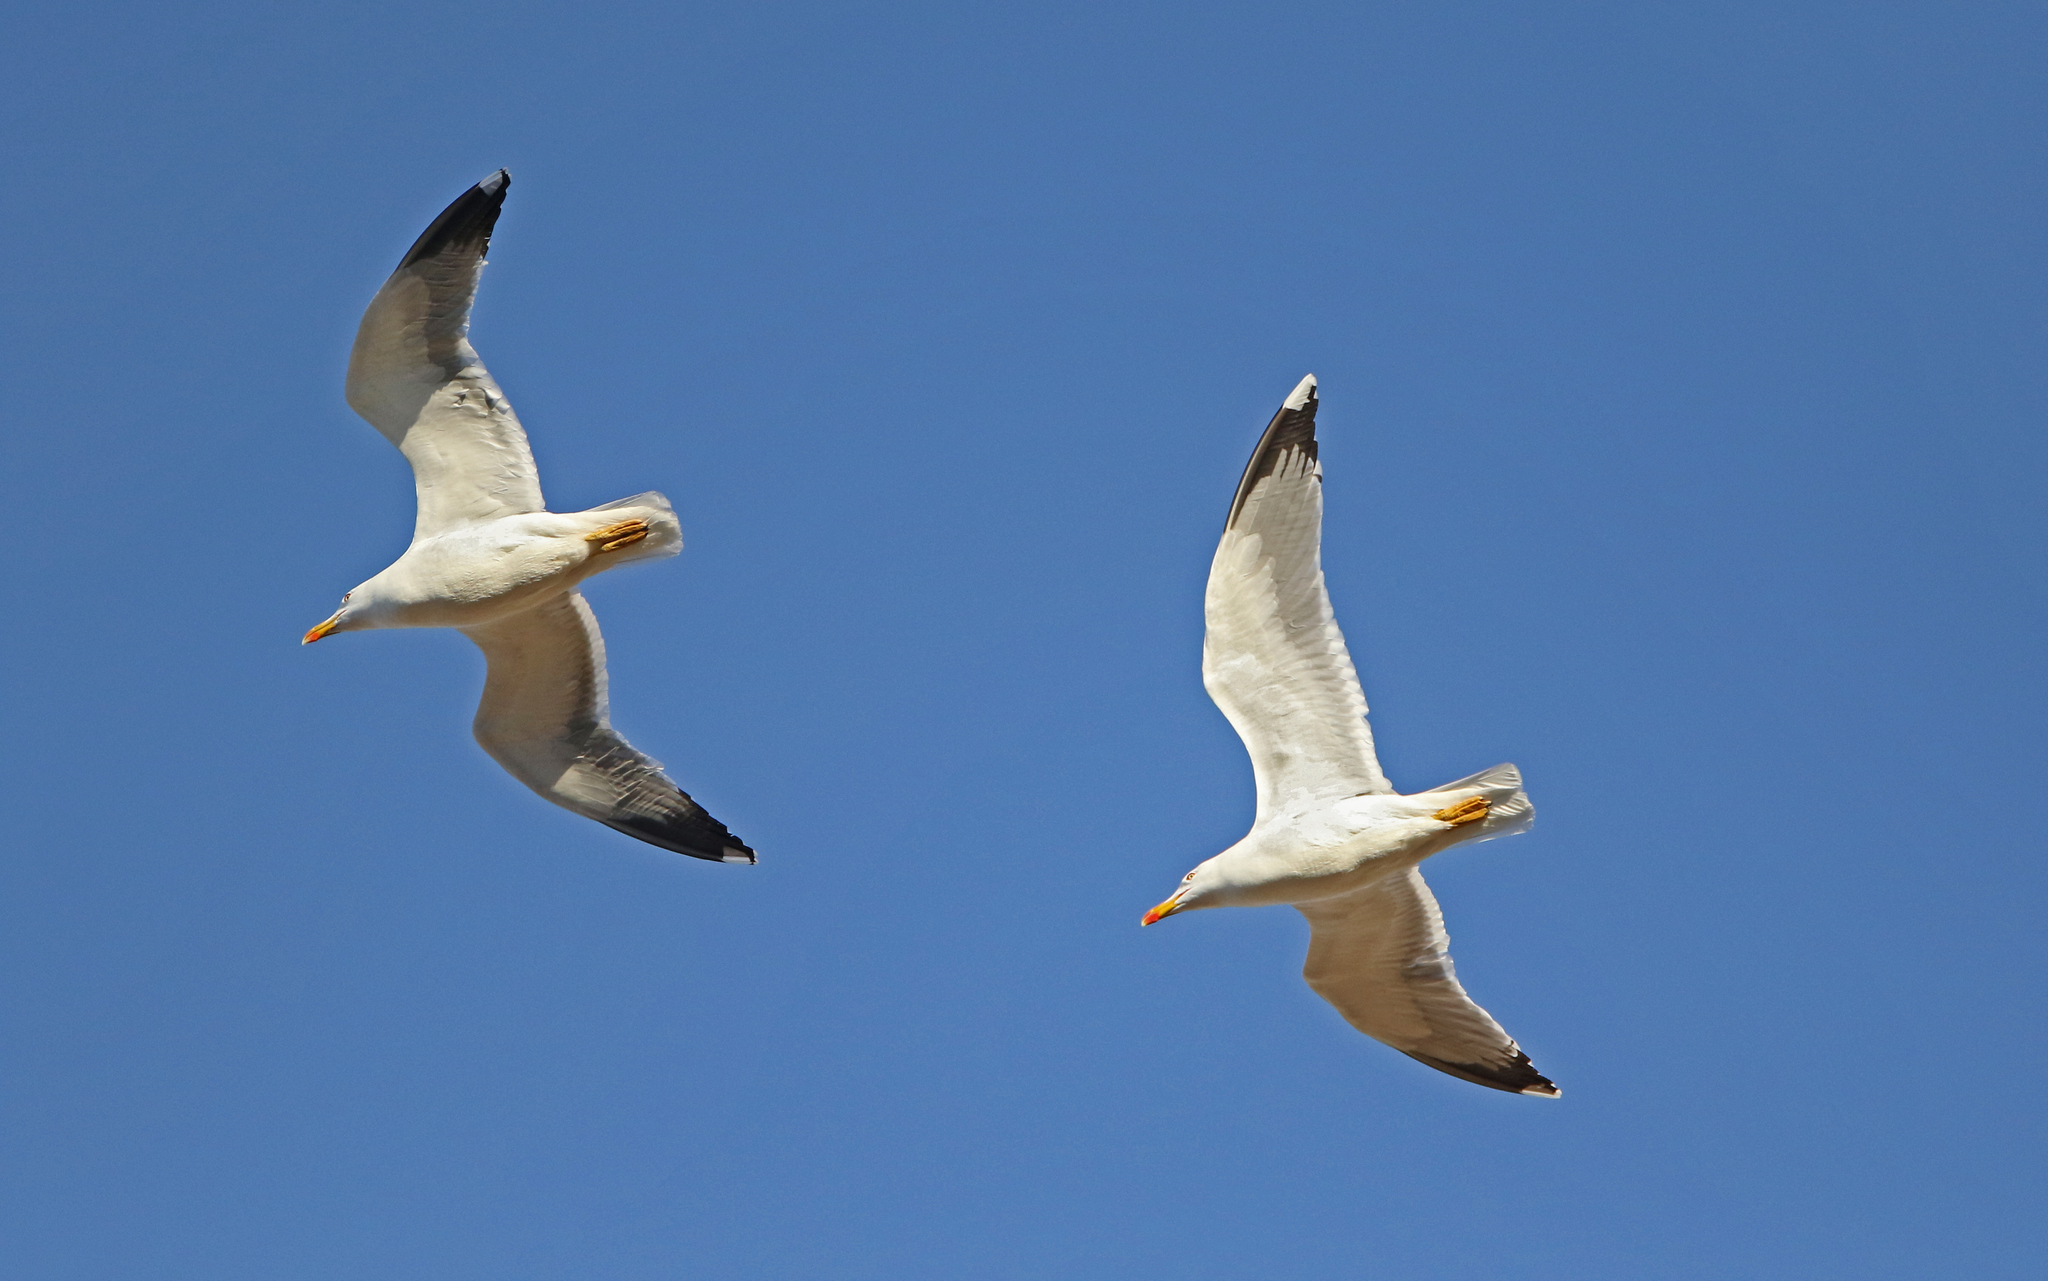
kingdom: Animalia
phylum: Chordata
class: Aves
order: Charadriiformes
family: Laridae
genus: Larus
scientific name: Larus michahellis
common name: Yellow-legged gull
